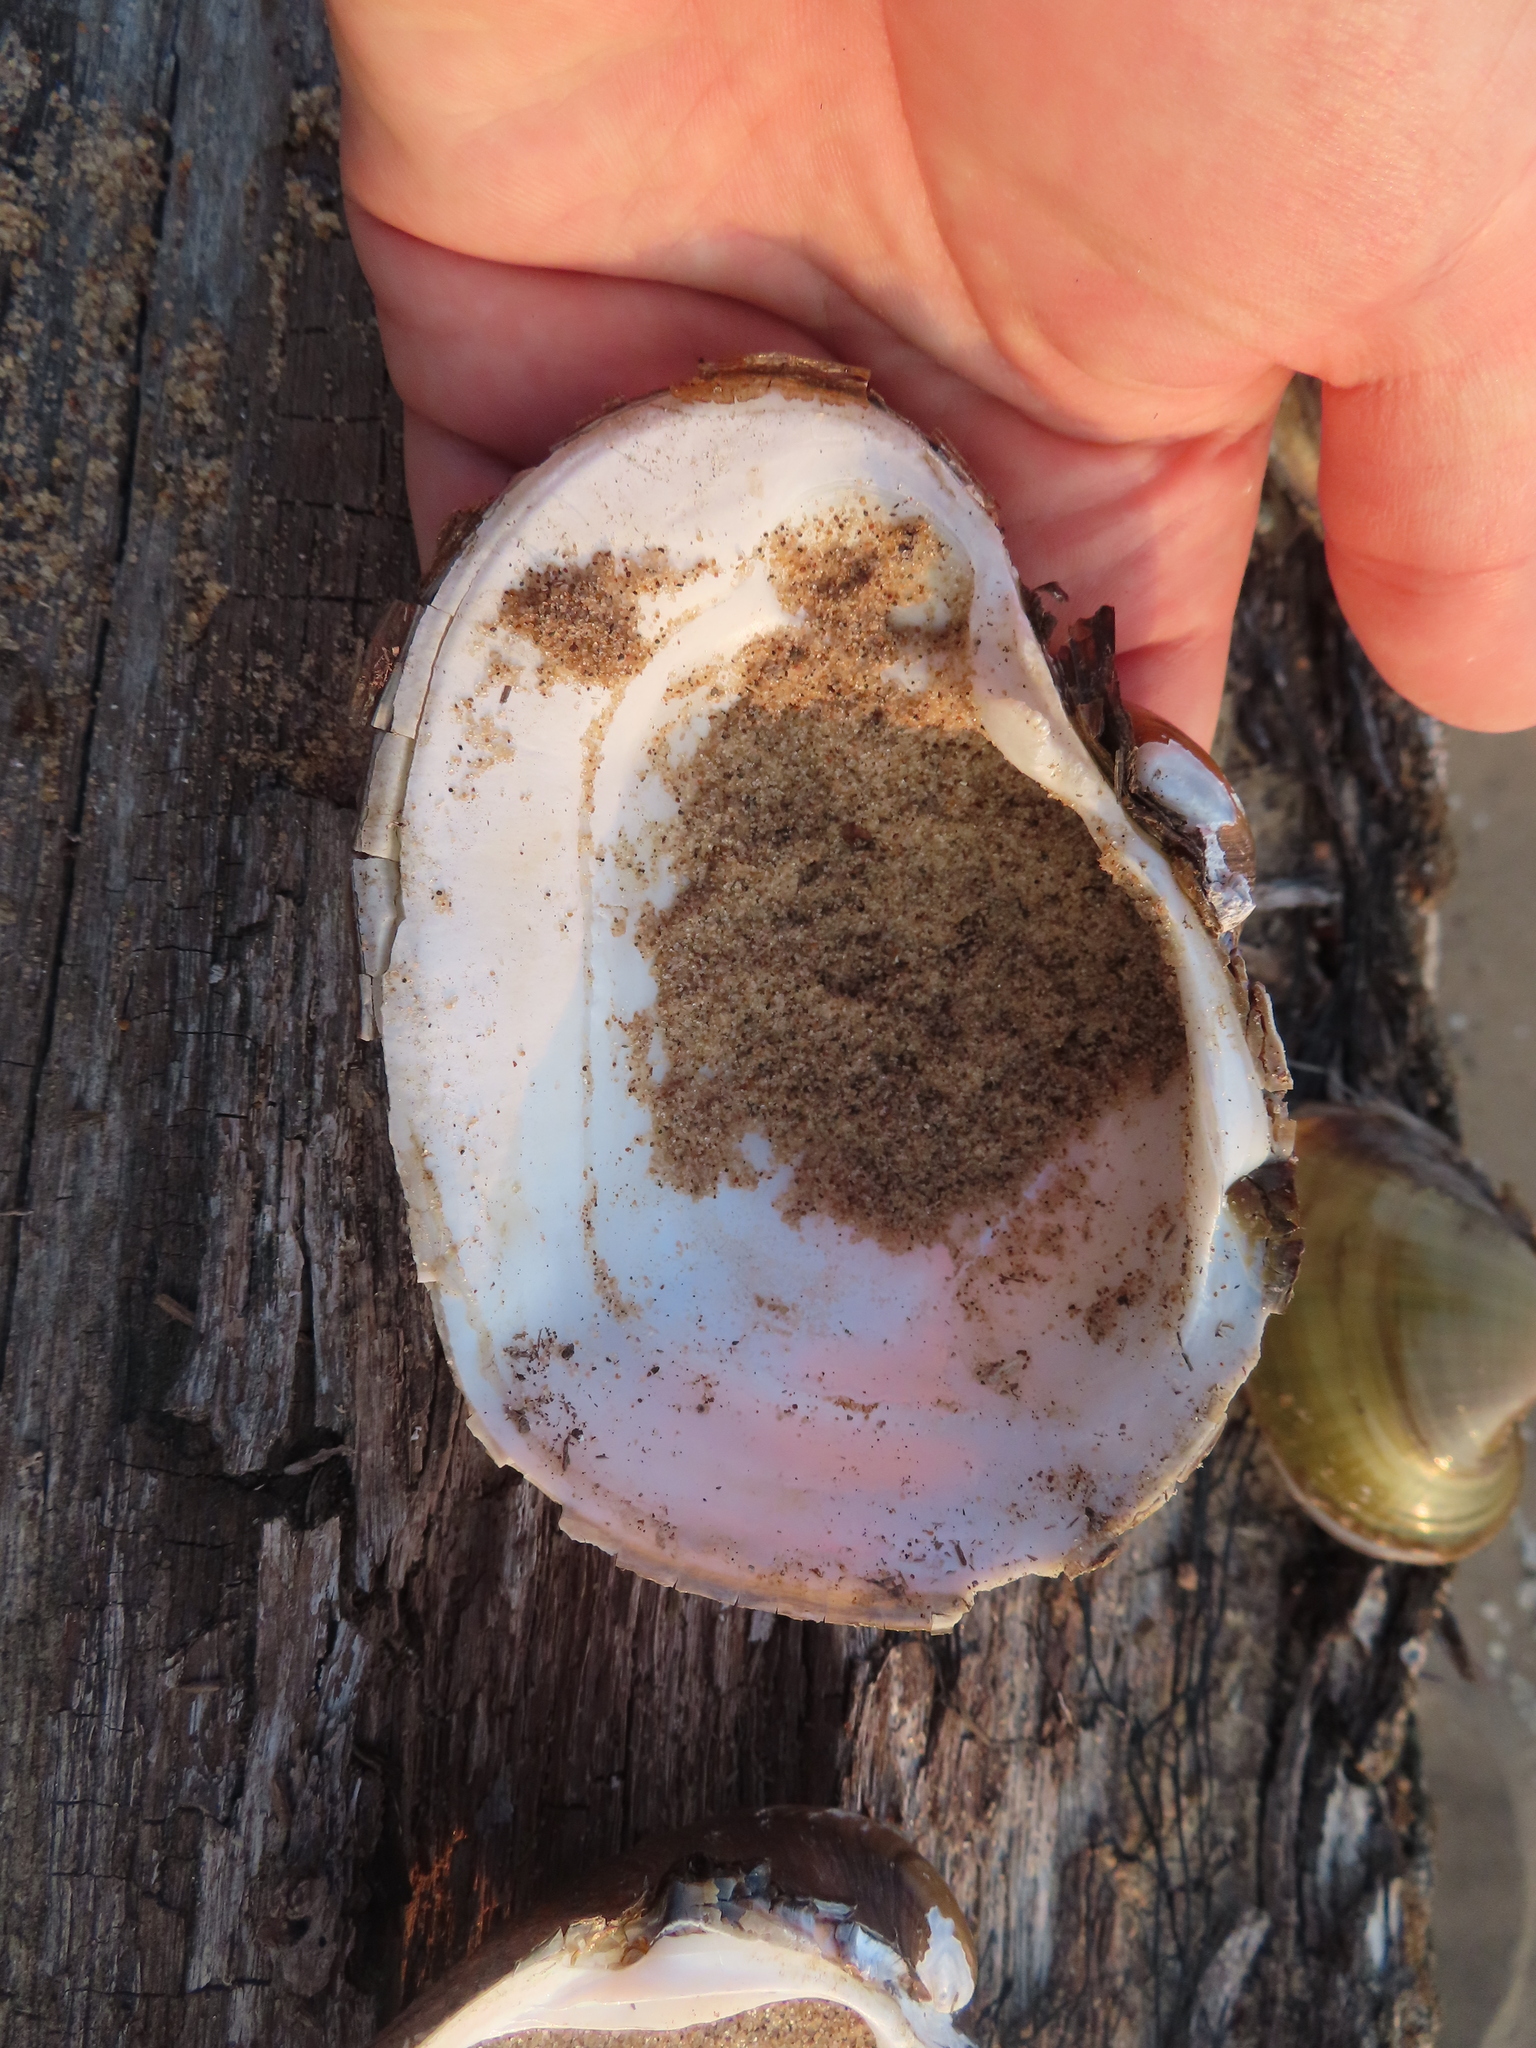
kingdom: Animalia
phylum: Mollusca
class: Bivalvia
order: Unionida
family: Unionidae
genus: Lampsilis
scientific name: Lampsilis cardium
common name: Plain pocketbook
